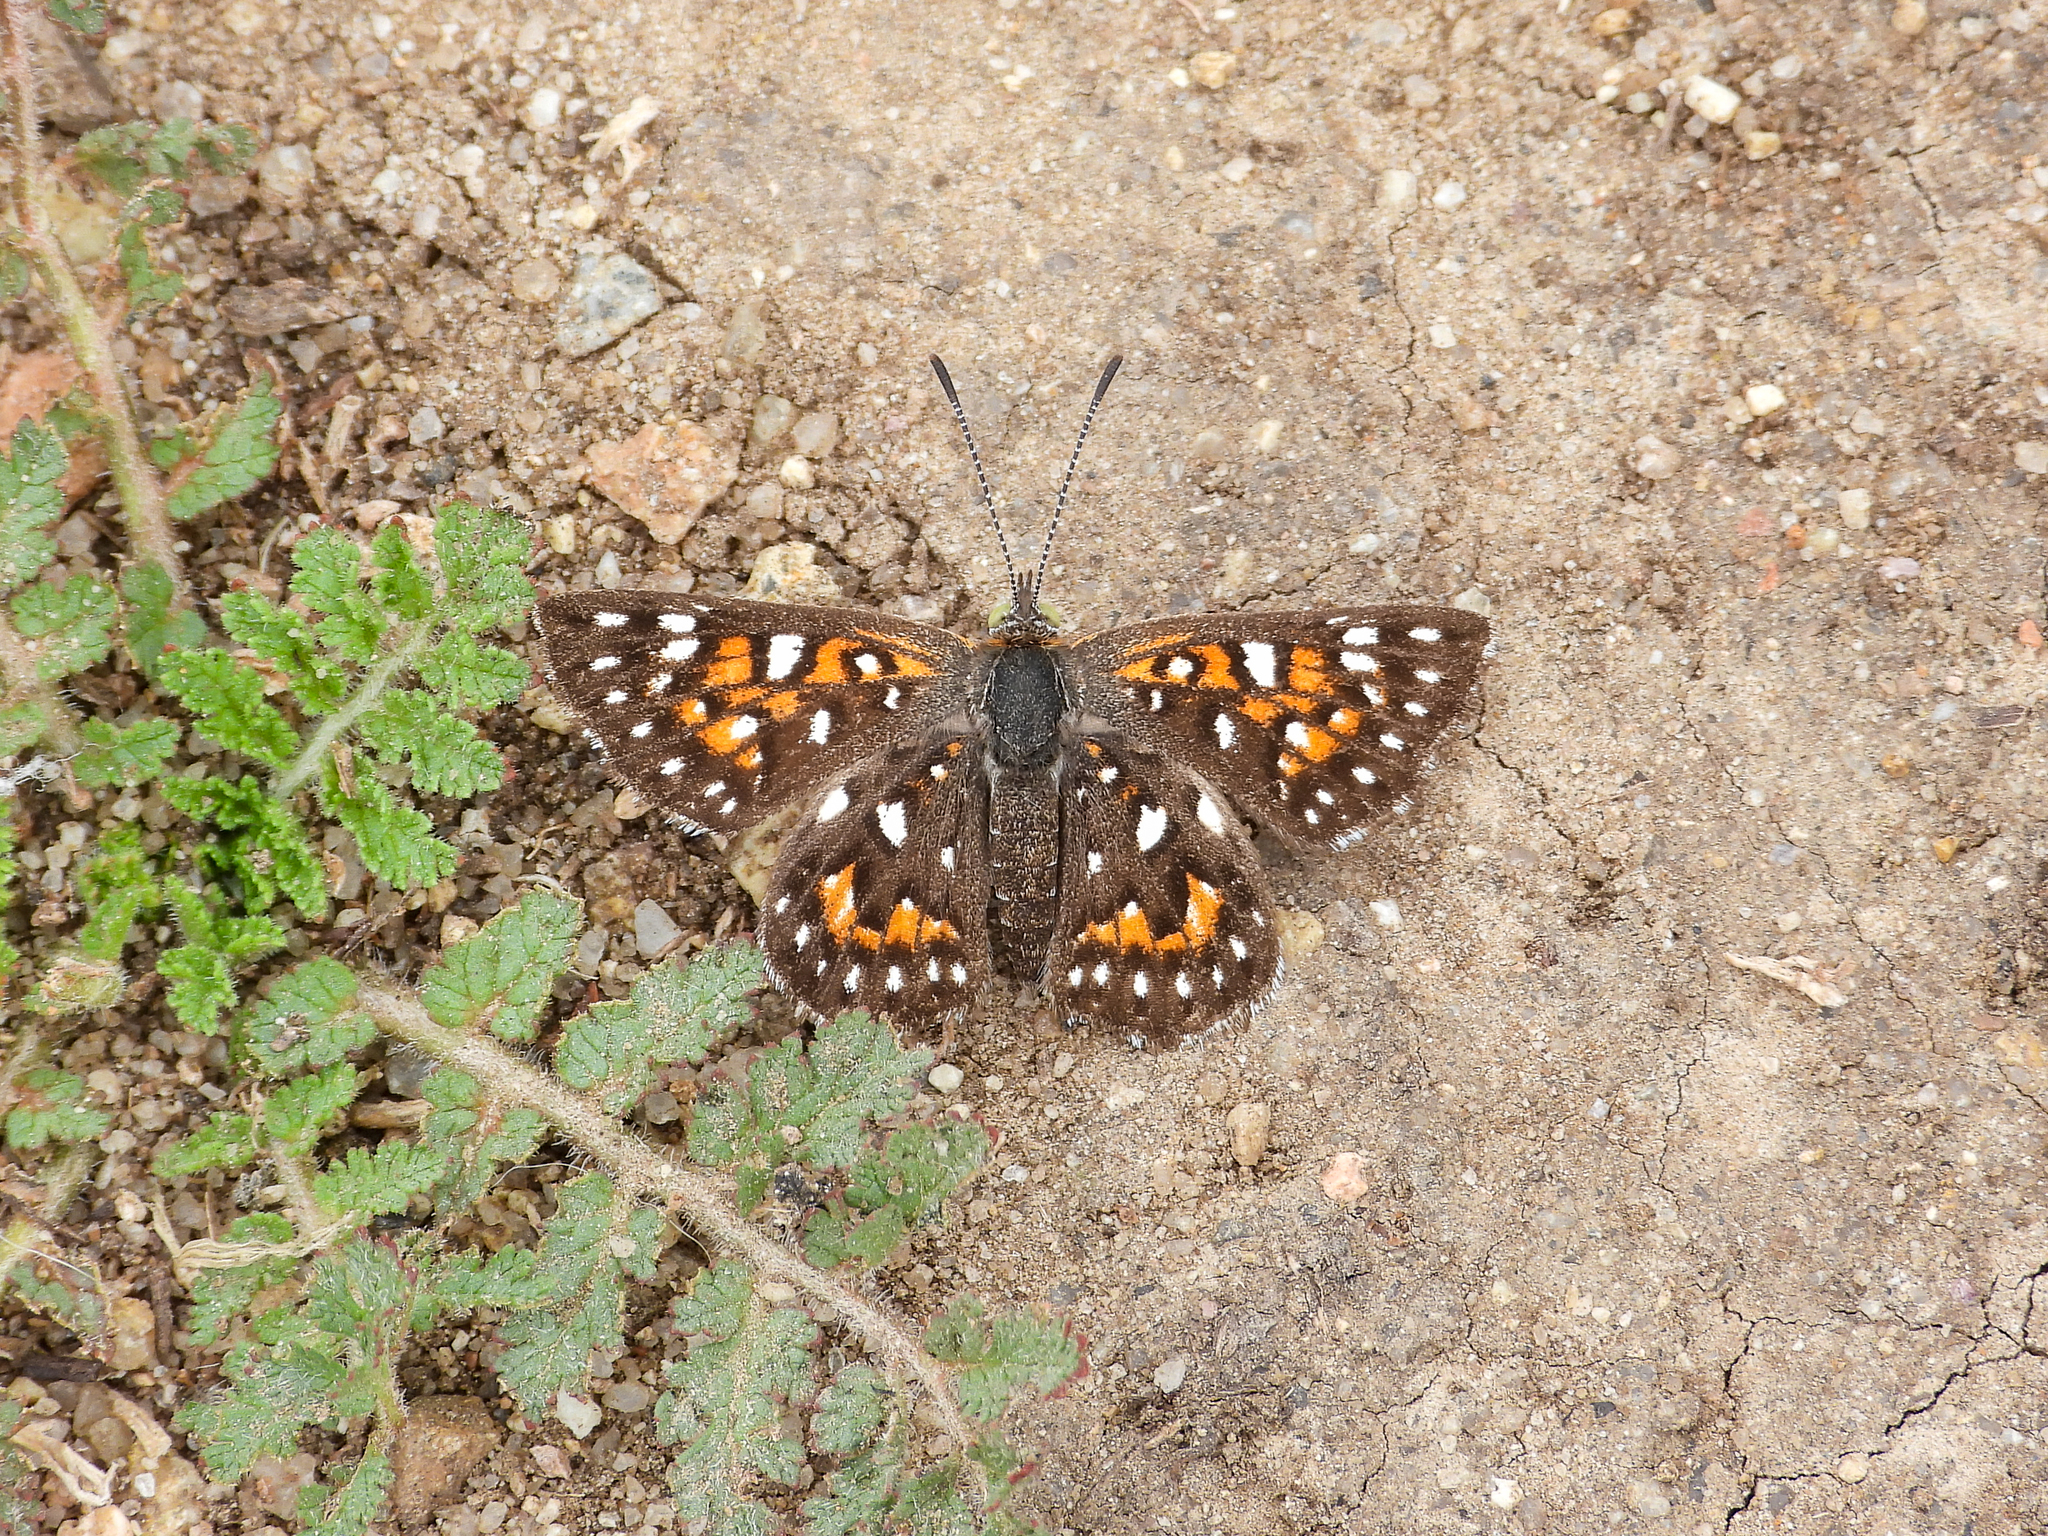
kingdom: Animalia
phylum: Arthropoda
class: Insecta
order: Lepidoptera
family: Riodinidae
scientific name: Riodinidae
